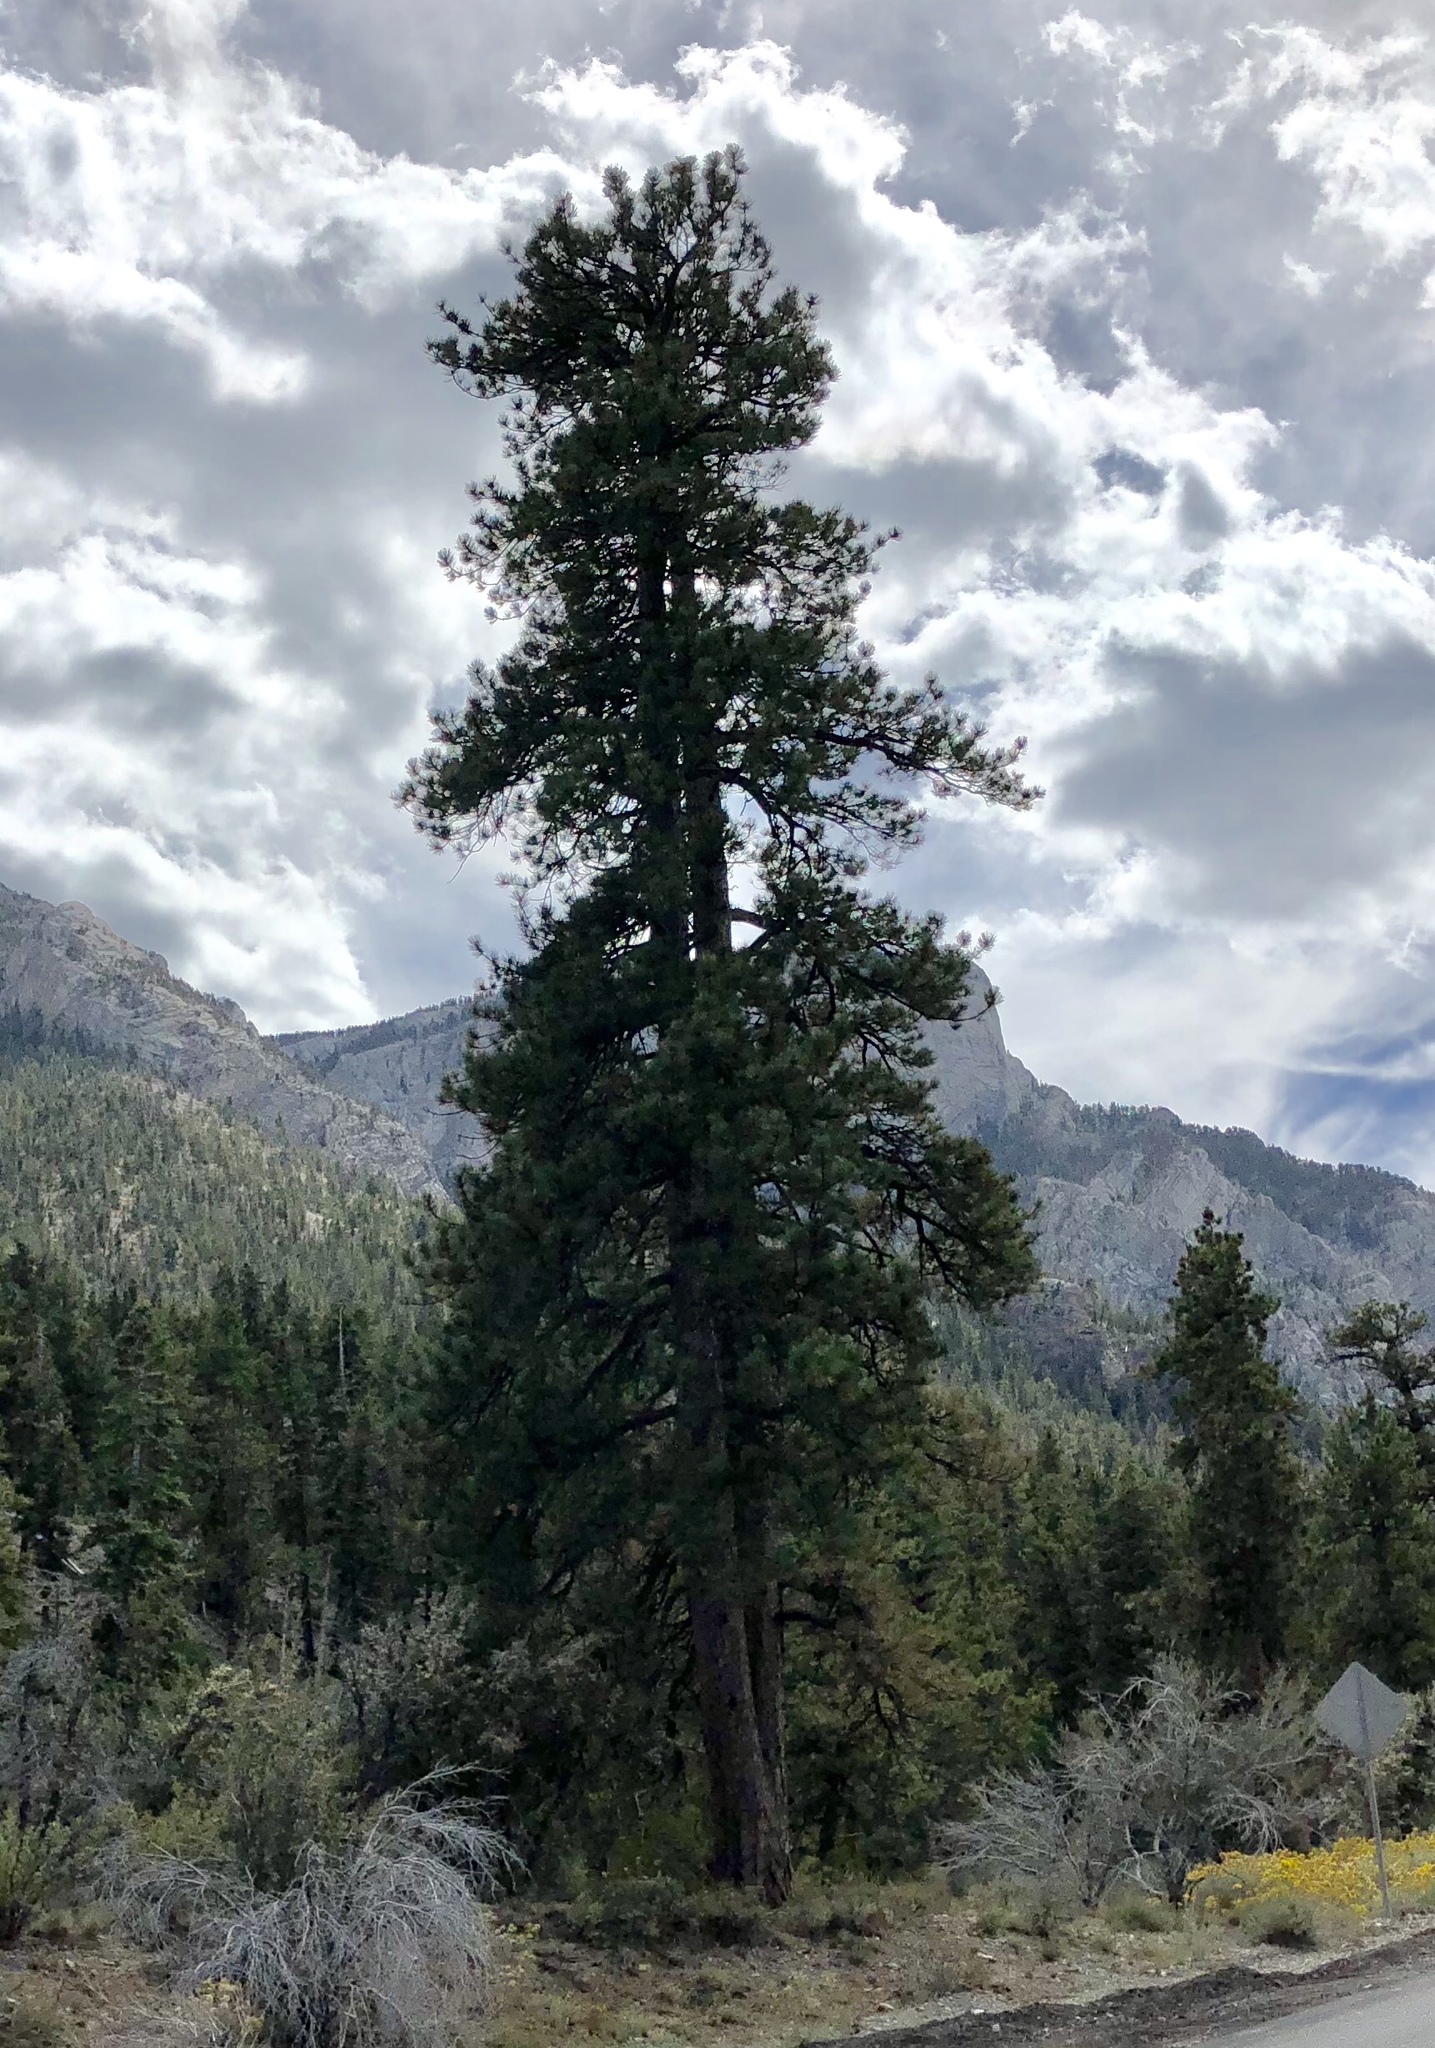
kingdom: Plantae
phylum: Tracheophyta
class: Pinopsida
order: Pinales
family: Pinaceae
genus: Pinus
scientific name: Pinus ponderosa
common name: Western yellow-pine
